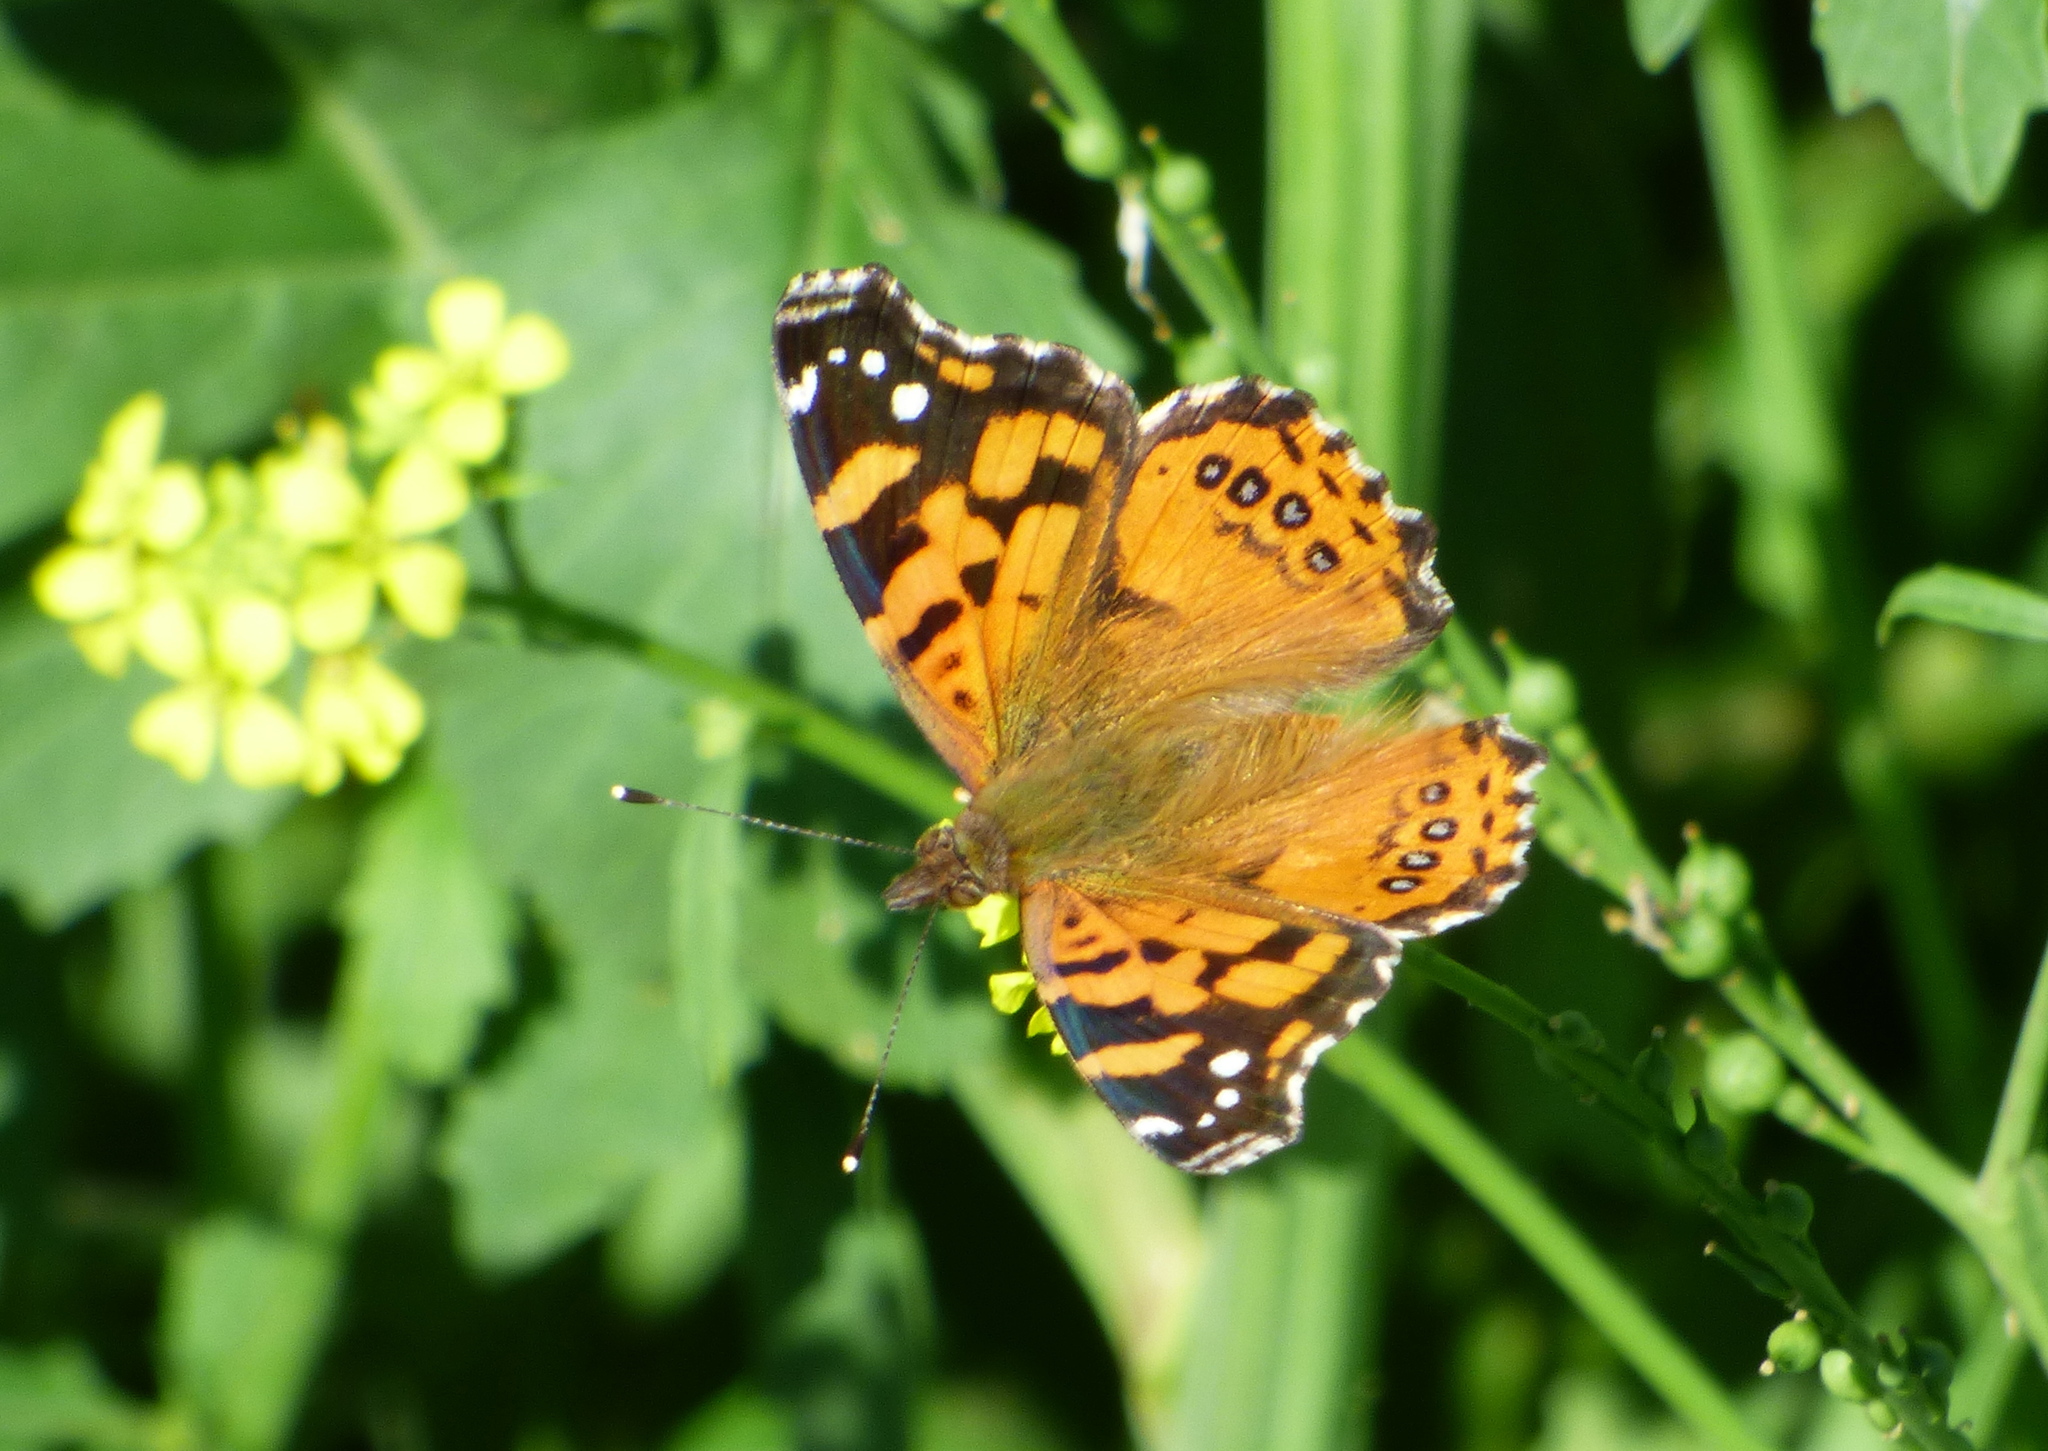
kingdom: Animalia
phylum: Arthropoda
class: Insecta
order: Lepidoptera
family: Nymphalidae
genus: Vanessa
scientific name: Vanessa carye
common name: Subtropical lady
